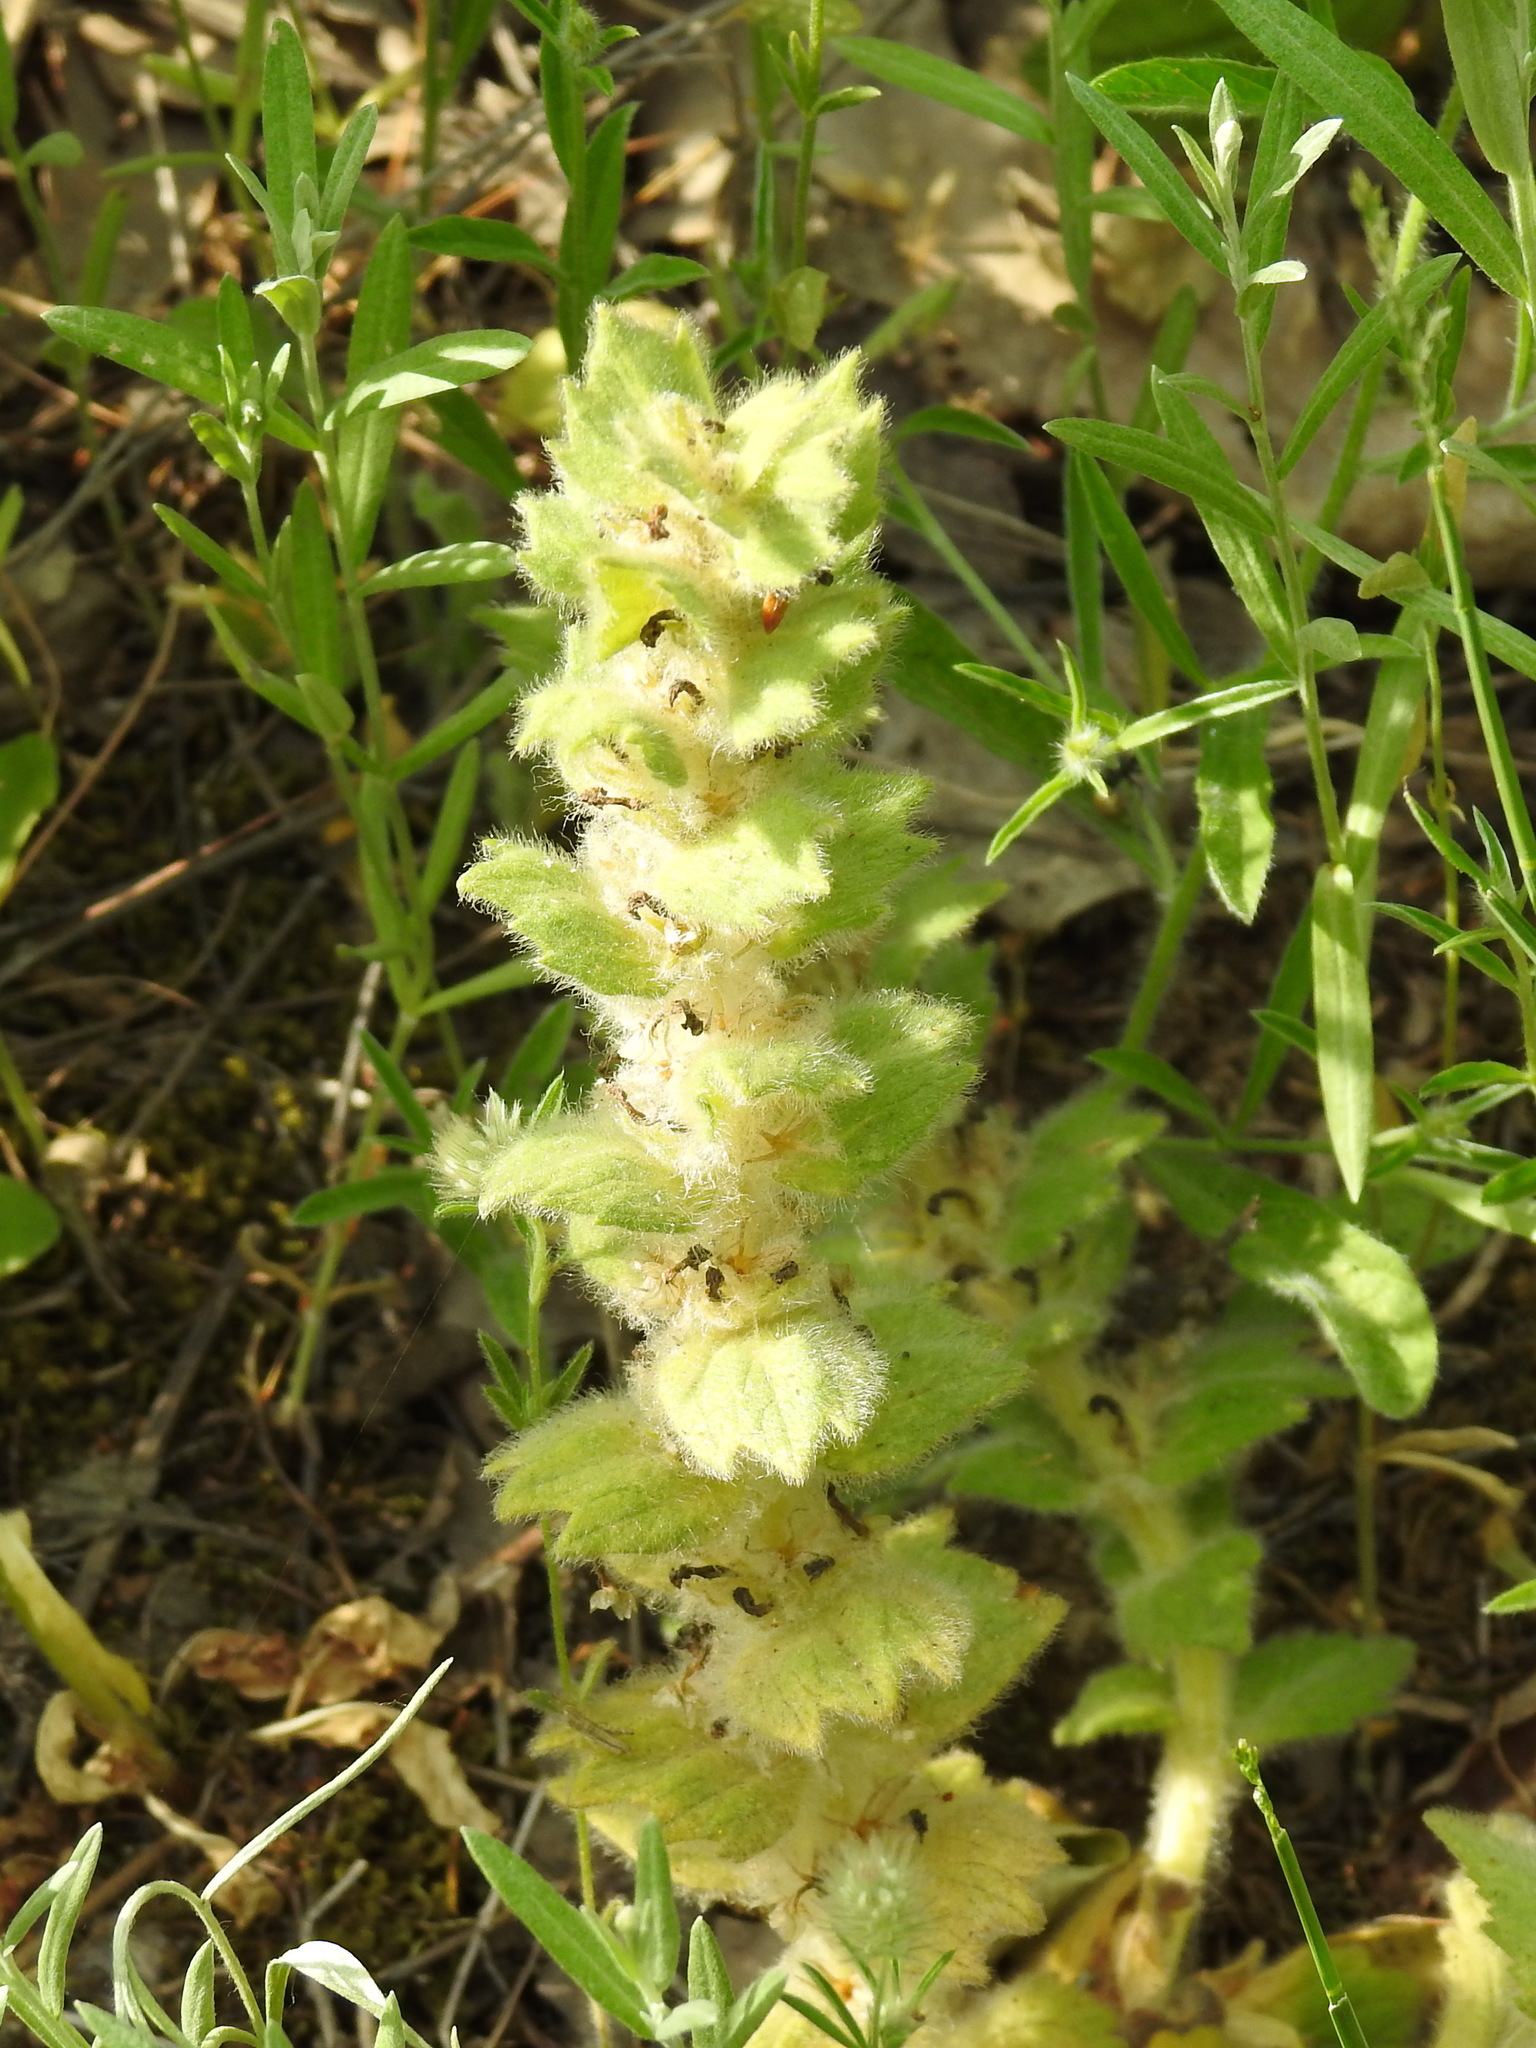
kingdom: Plantae
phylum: Tracheophyta
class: Magnoliopsida
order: Lamiales
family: Lamiaceae
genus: Ajuga
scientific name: Ajuga orientalis
